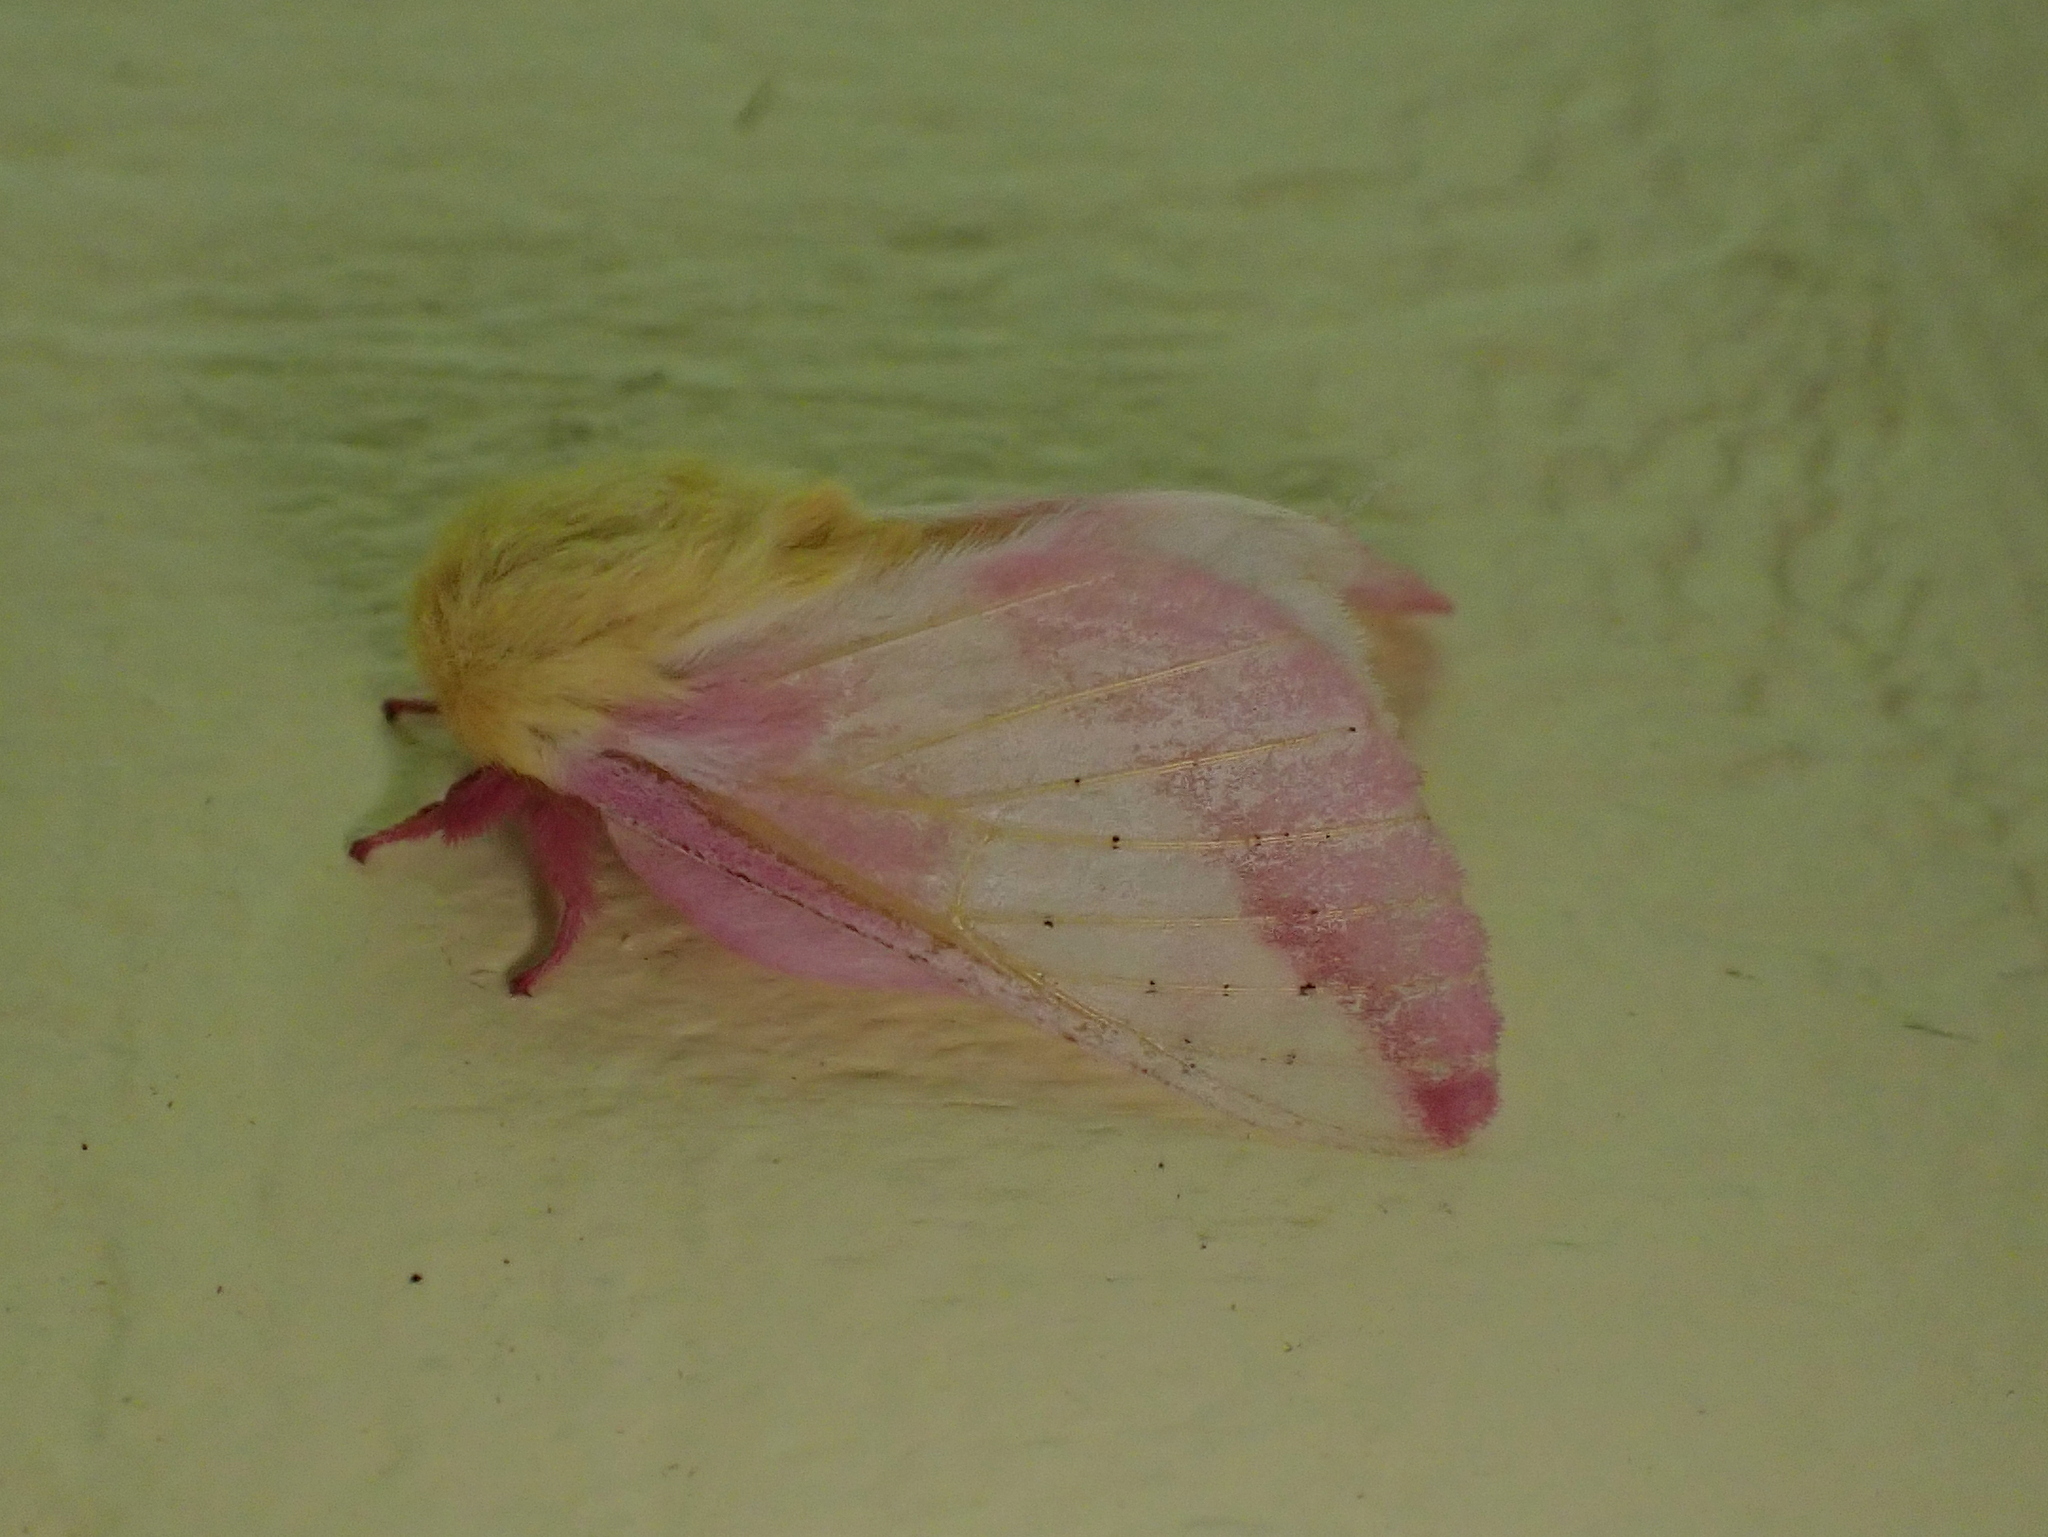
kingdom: Animalia
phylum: Arthropoda
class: Insecta
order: Lepidoptera
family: Saturniidae
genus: Dryocampa
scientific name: Dryocampa rubicunda
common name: Rosy maple moth
